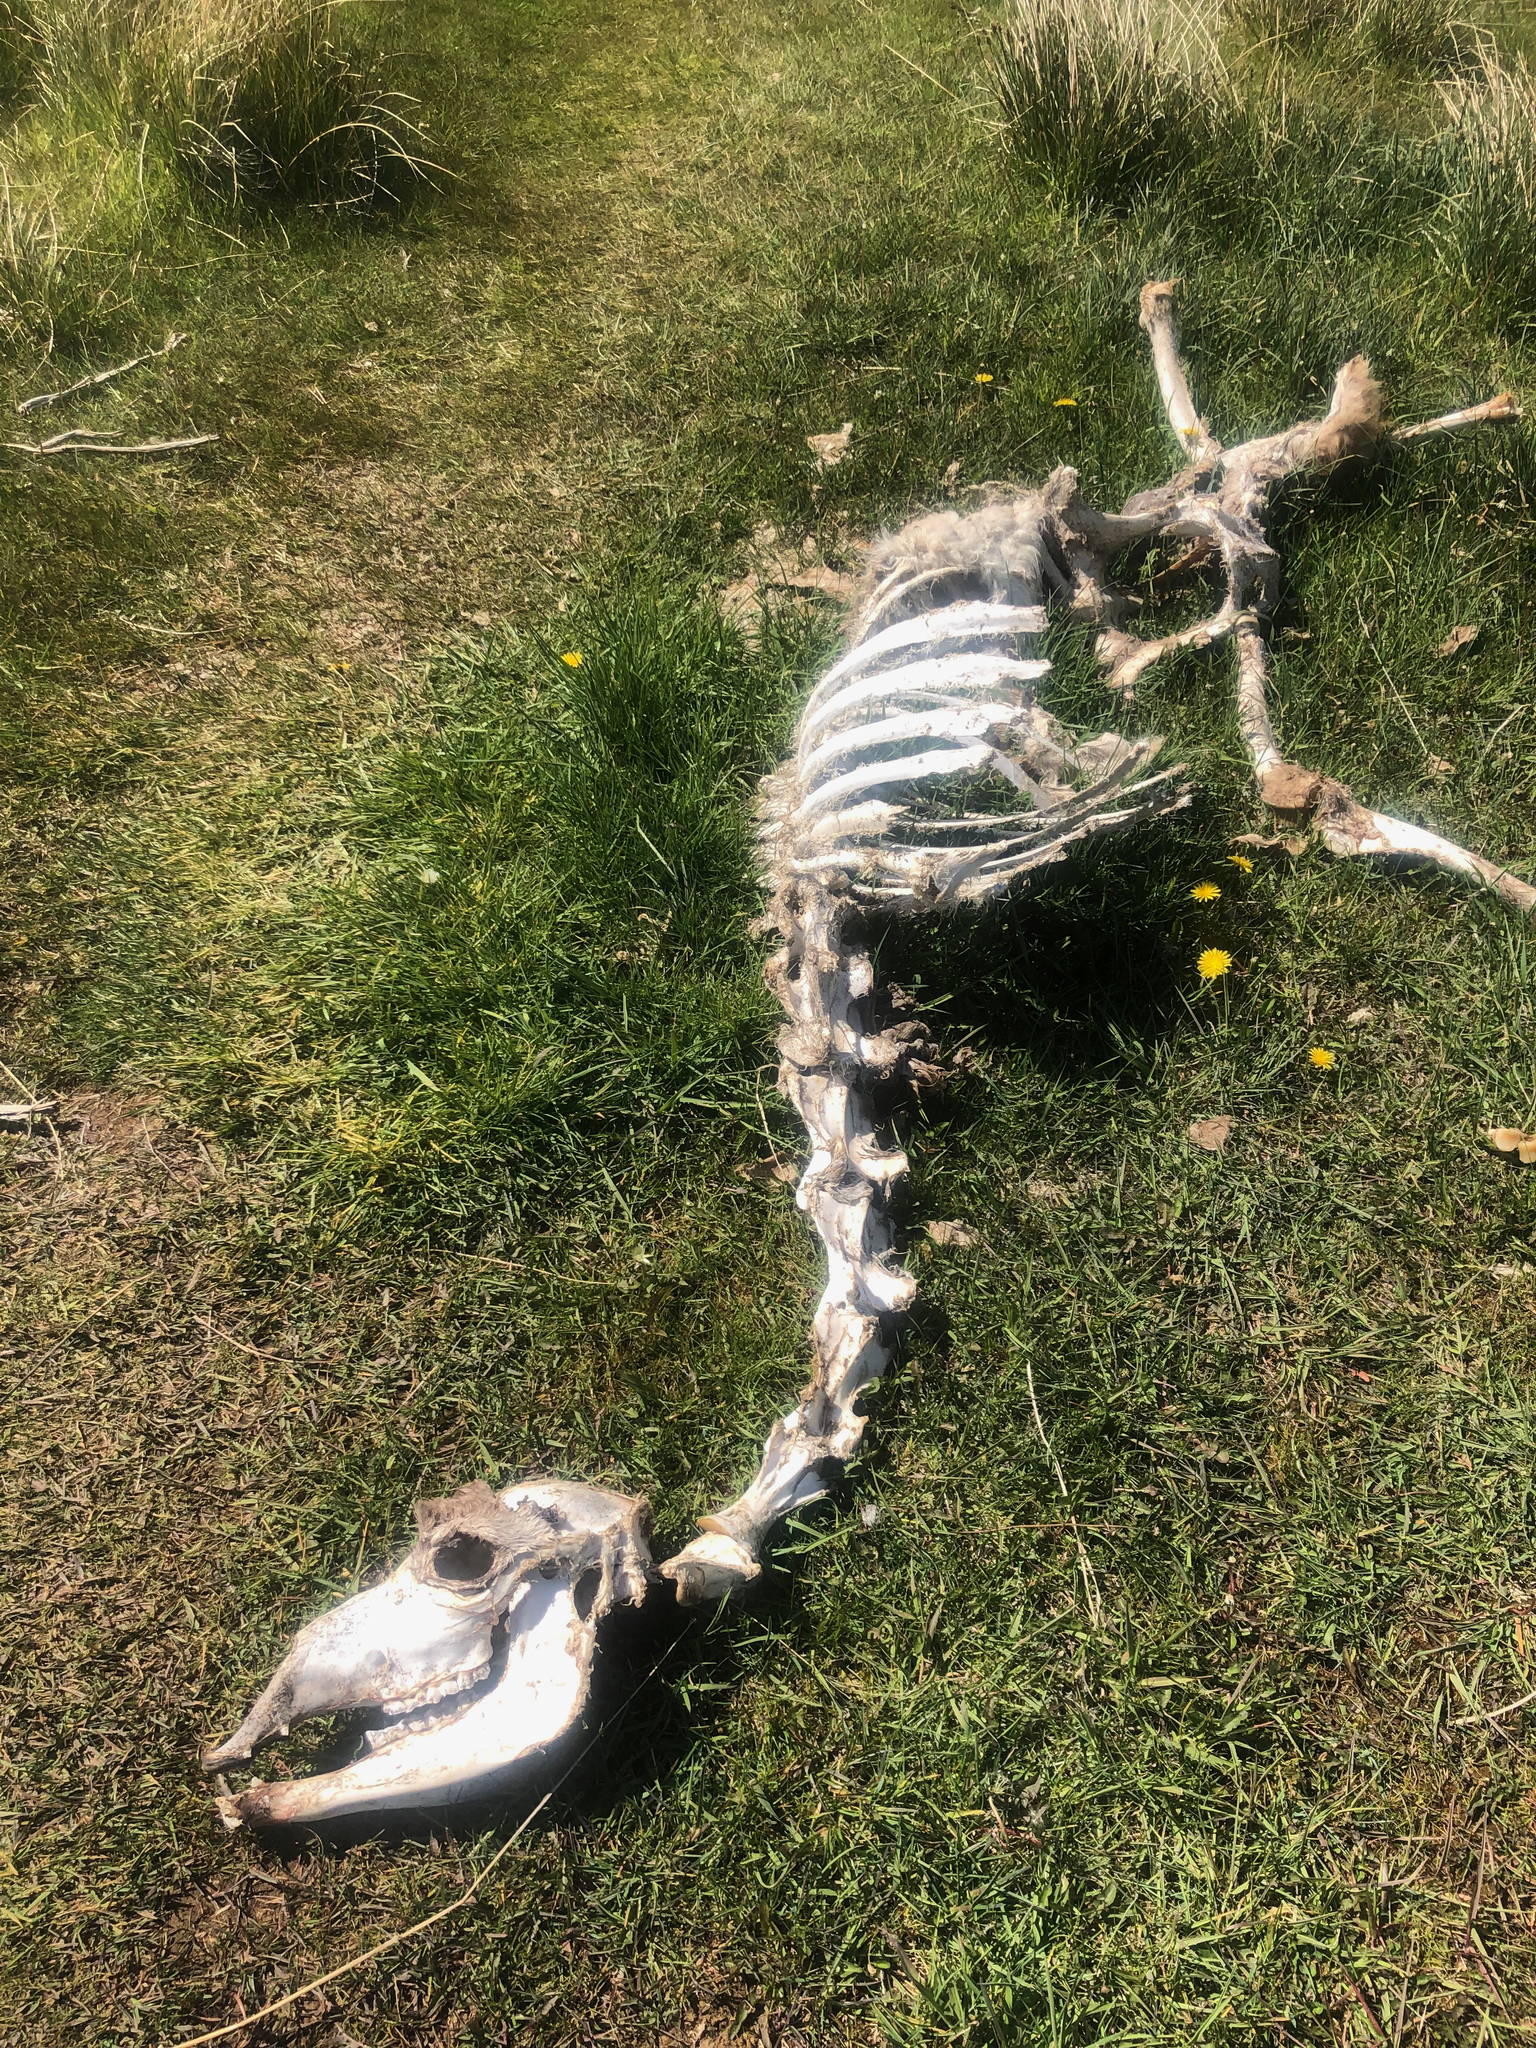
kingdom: Animalia
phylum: Chordata
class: Mammalia
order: Artiodactyla
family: Camelidae
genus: Lama
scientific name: Lama glama
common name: Llama
